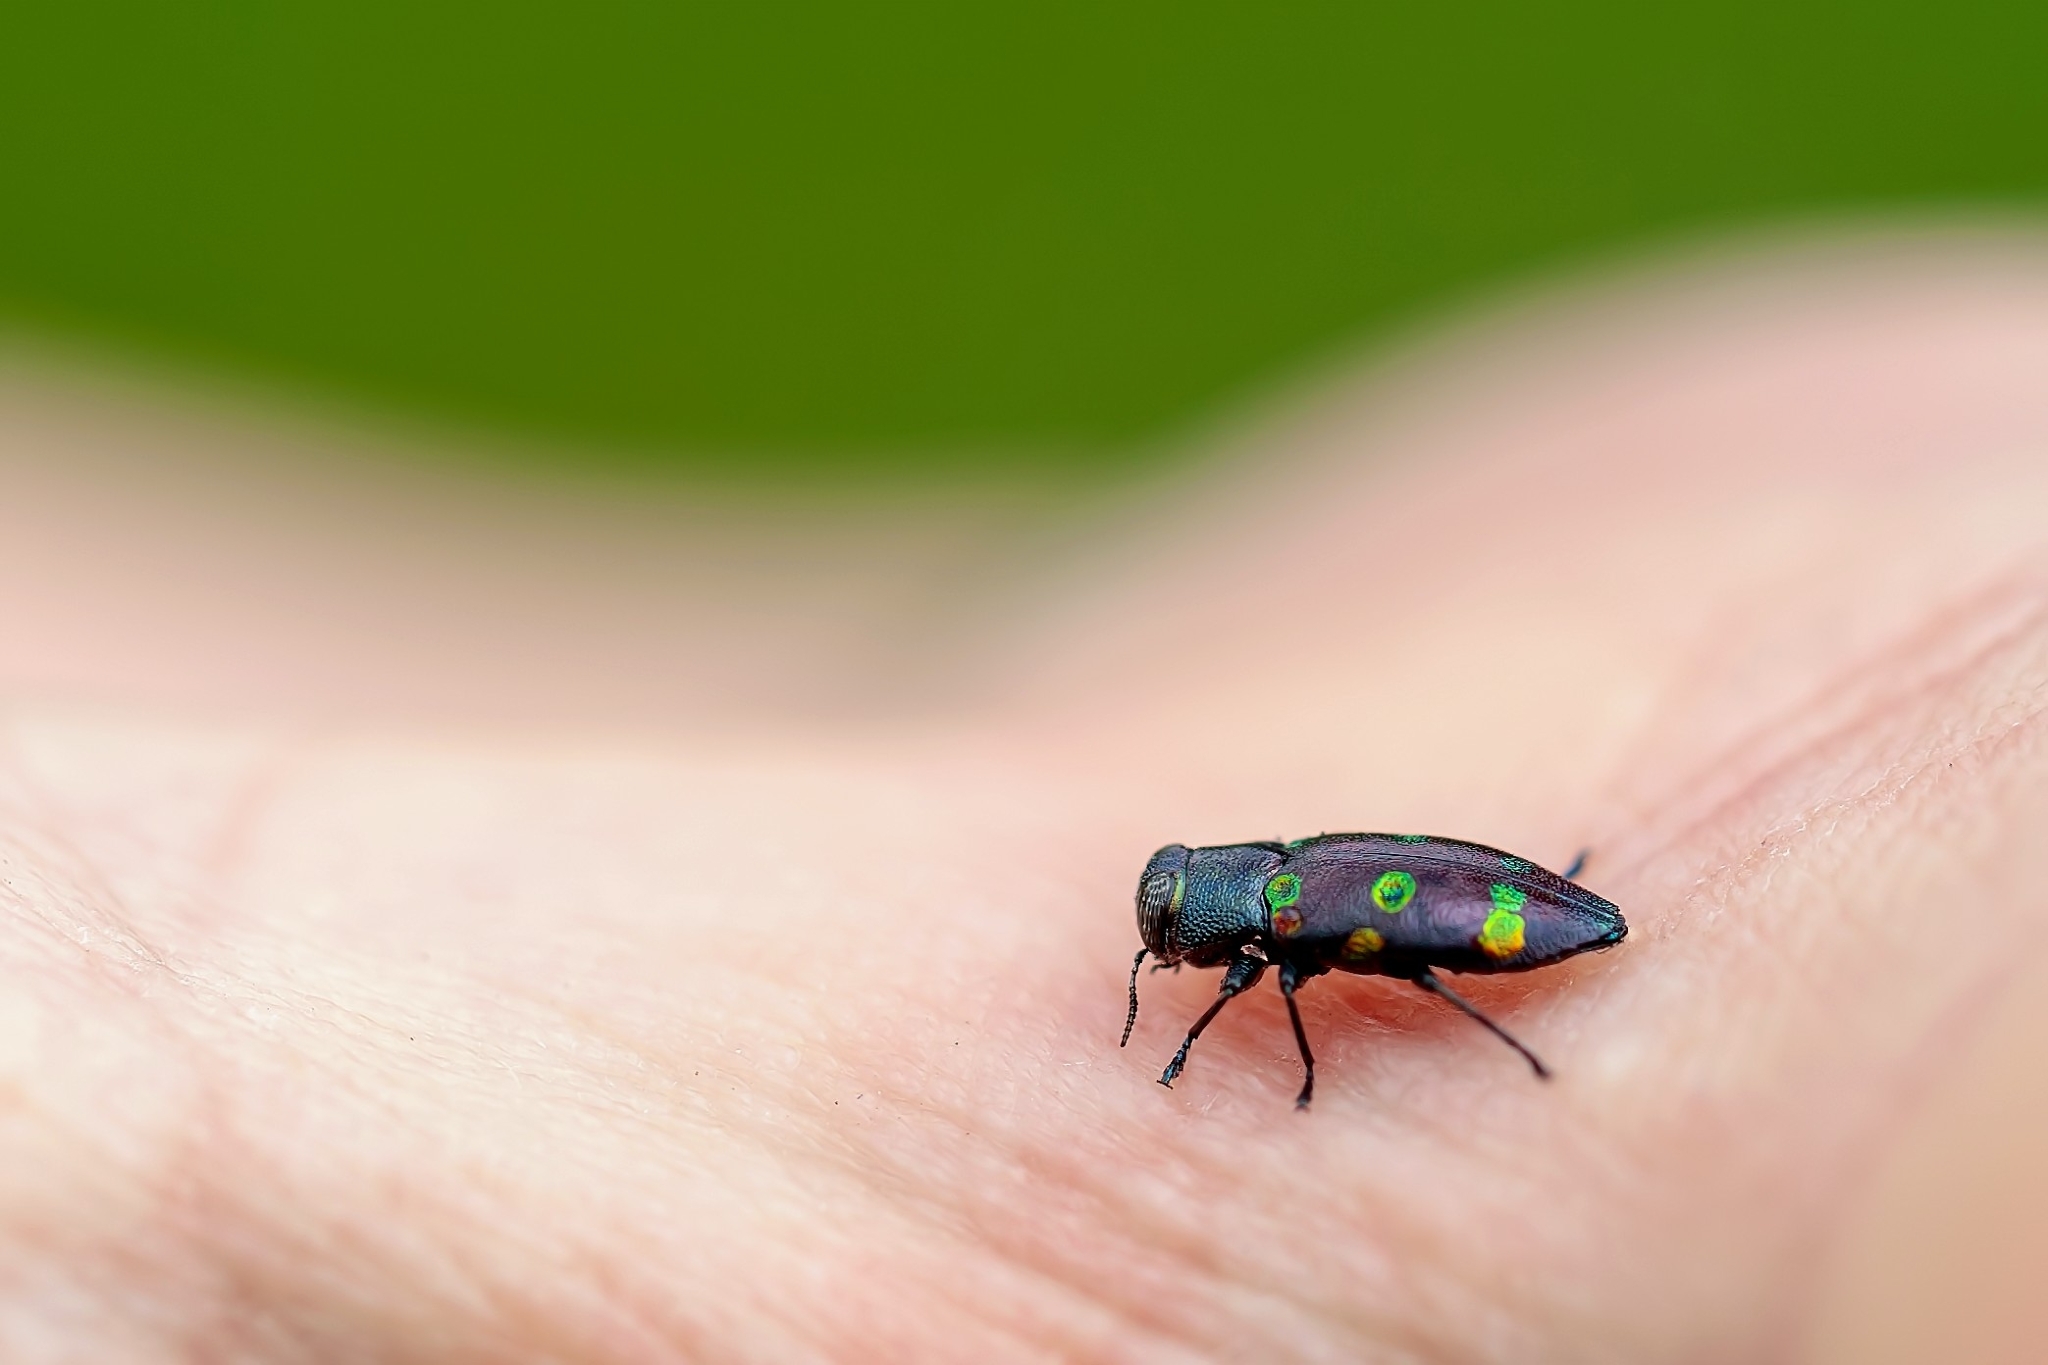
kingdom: Animalia
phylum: Arthropoda
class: Insecta
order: Coleoptera
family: Buprestidae
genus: Chrysobothris
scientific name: Chrysobothris chrysoela
